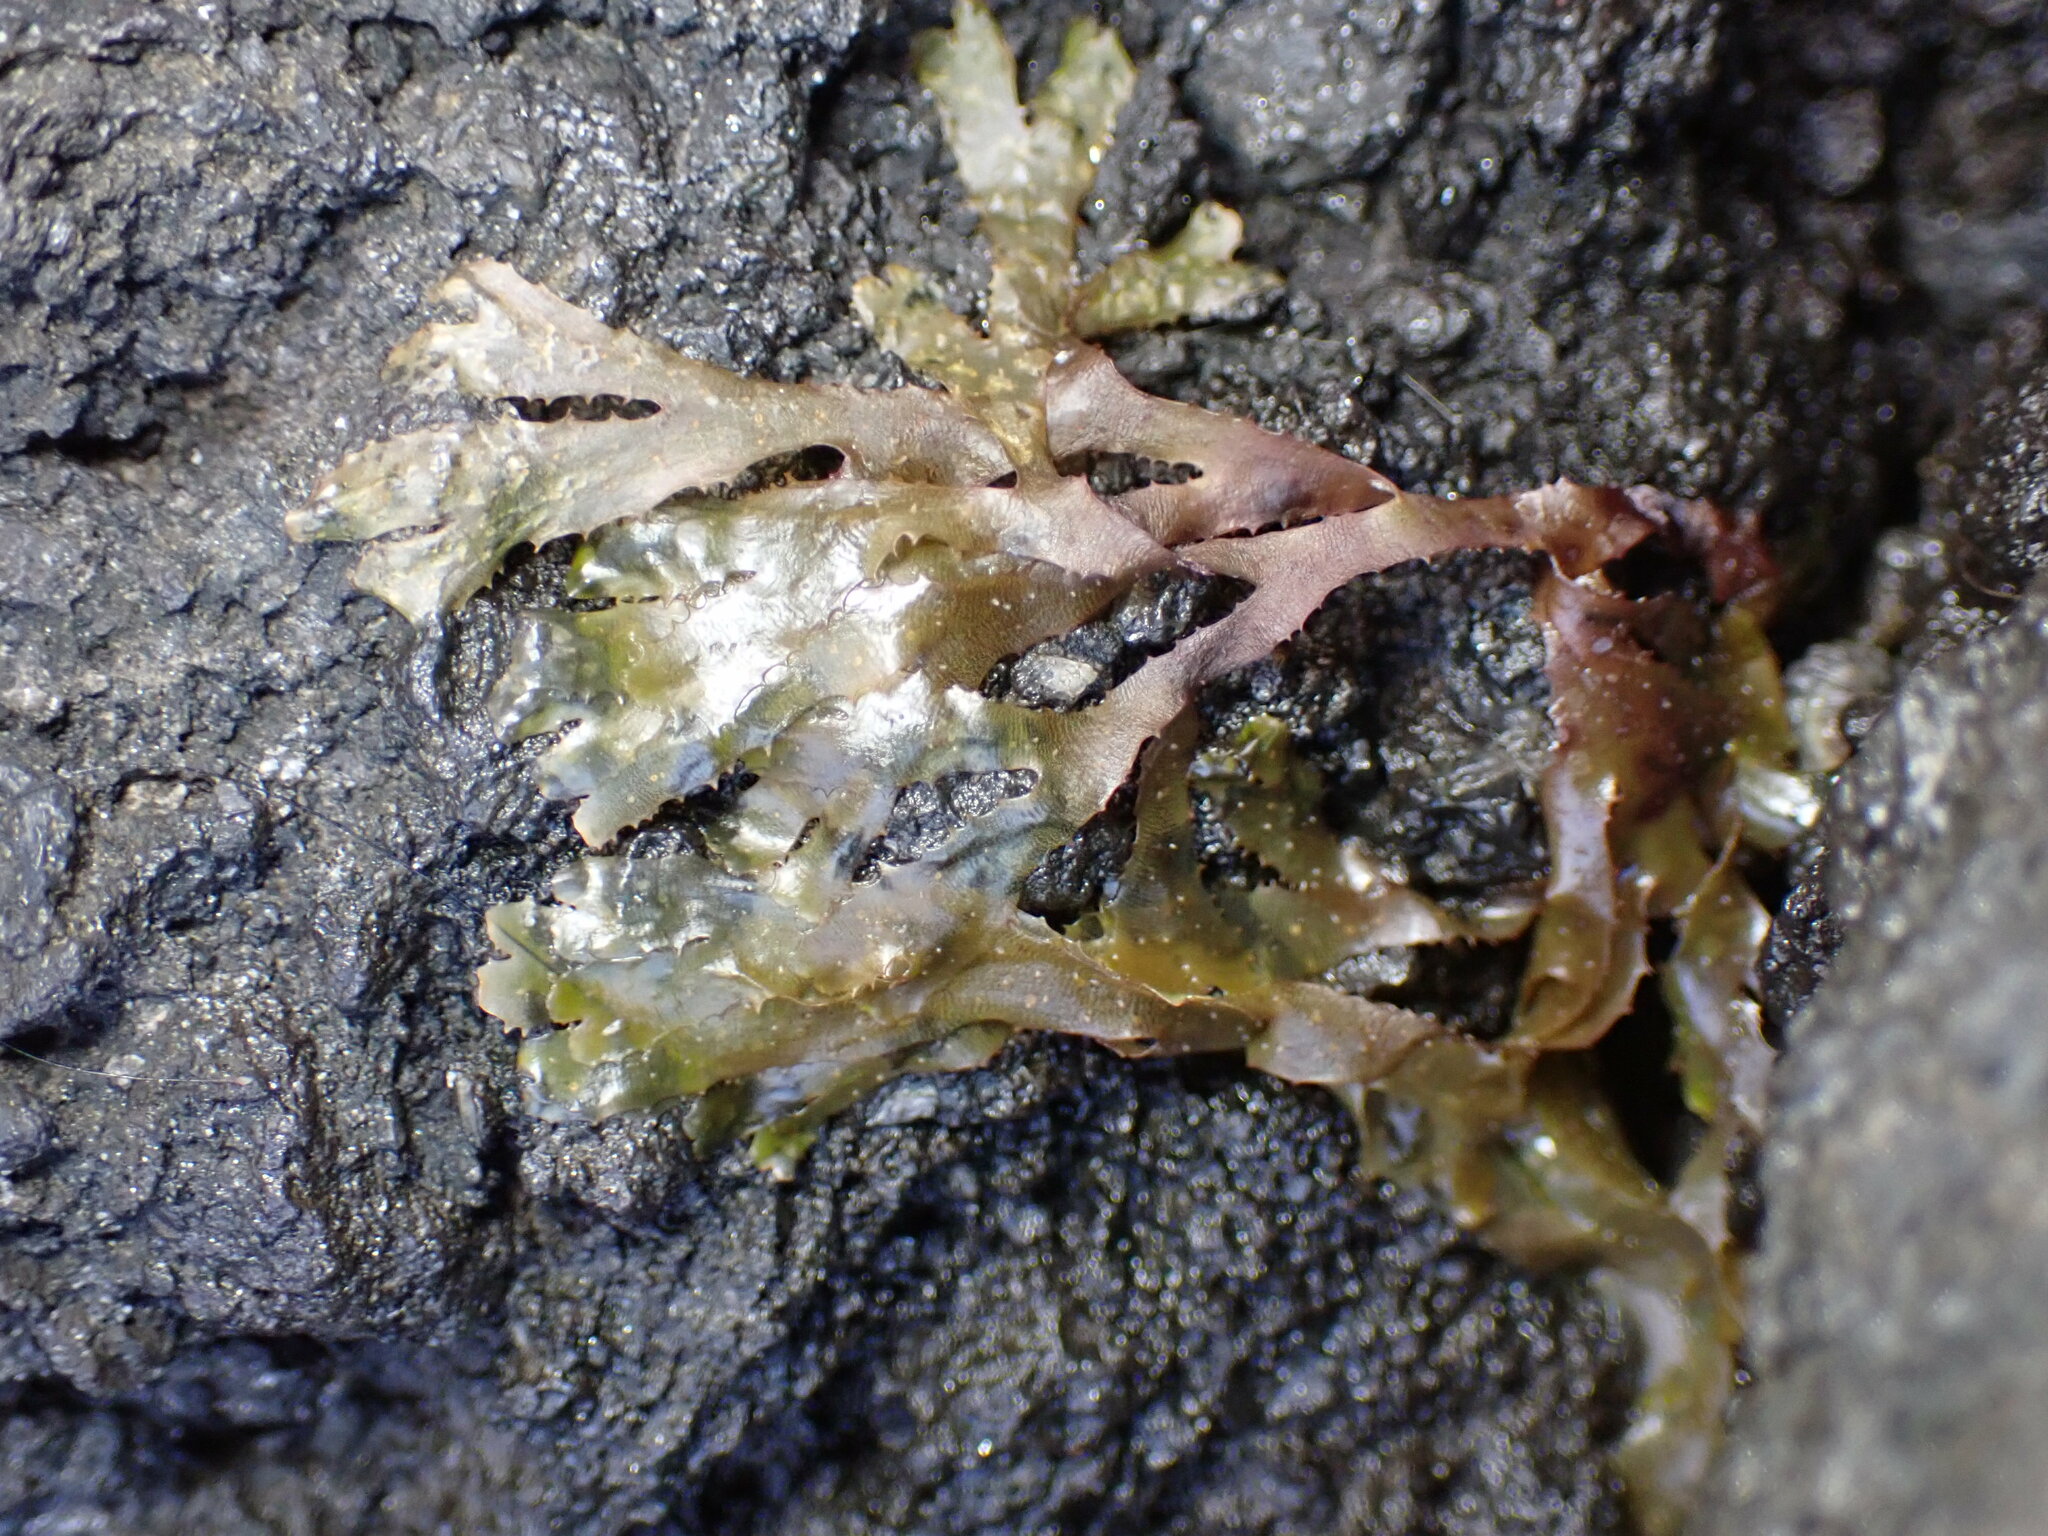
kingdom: Chromista
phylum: Ochrophyta
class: Phaeophyceae
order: Dictyotales
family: Dictyotaceae
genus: Dictyota
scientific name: Dictyota dichotoma
